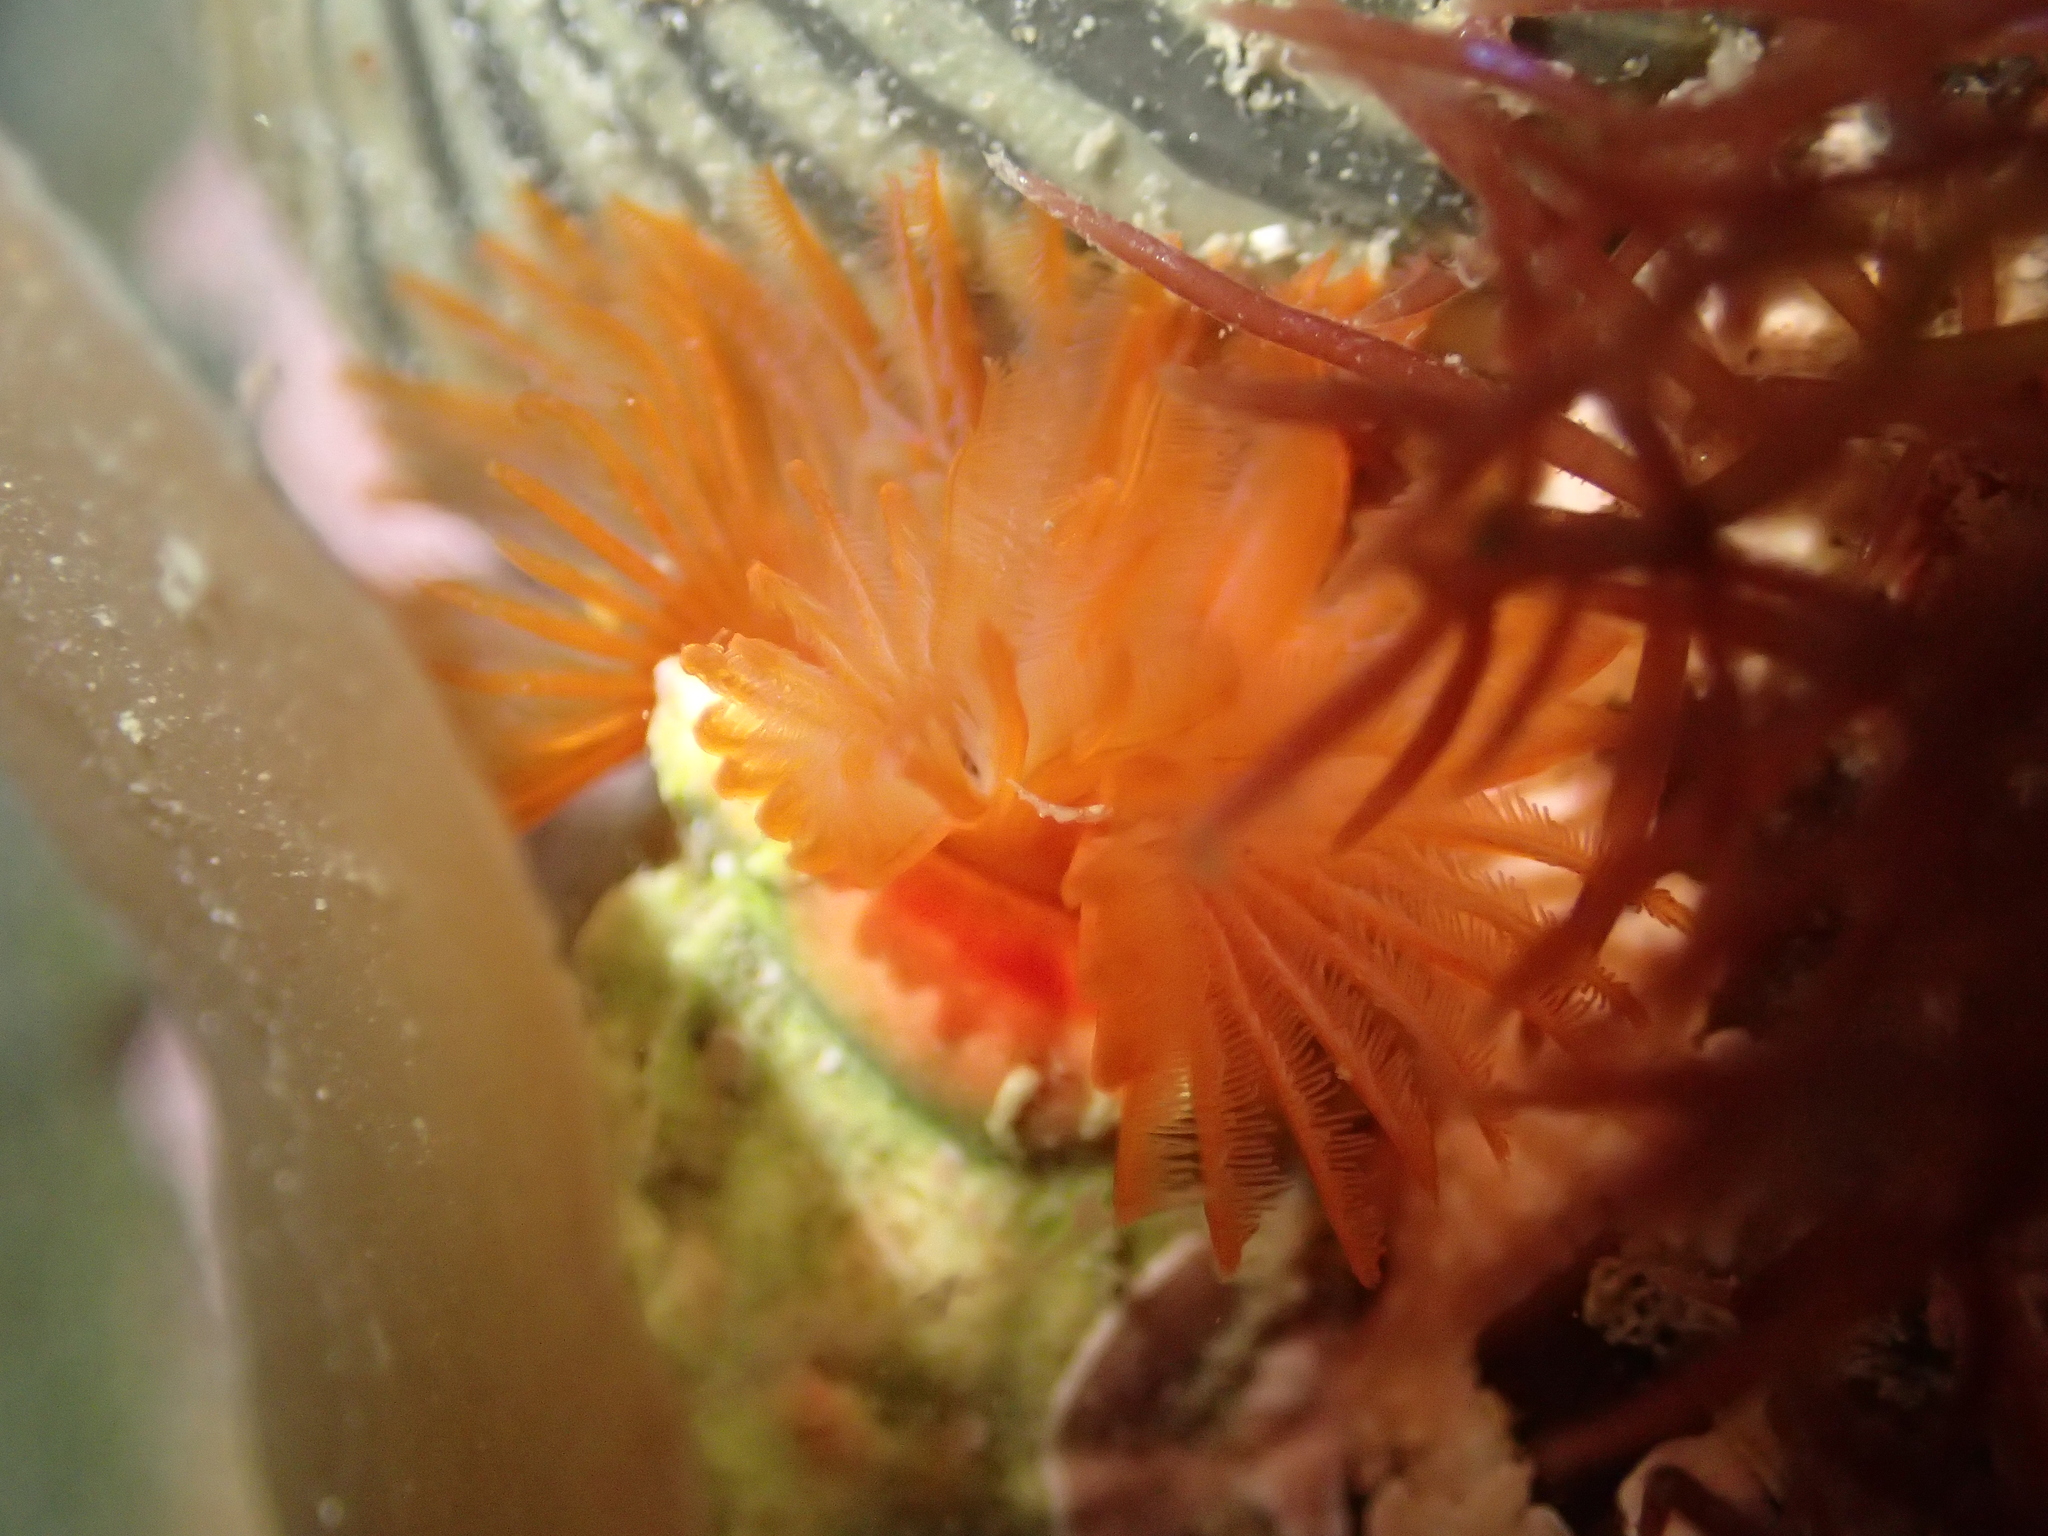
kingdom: Animalia
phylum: Annelida
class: Polychaeta
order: Sabellida
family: Serpulidae
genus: Galeolaria
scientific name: Galeolaria hystrix
